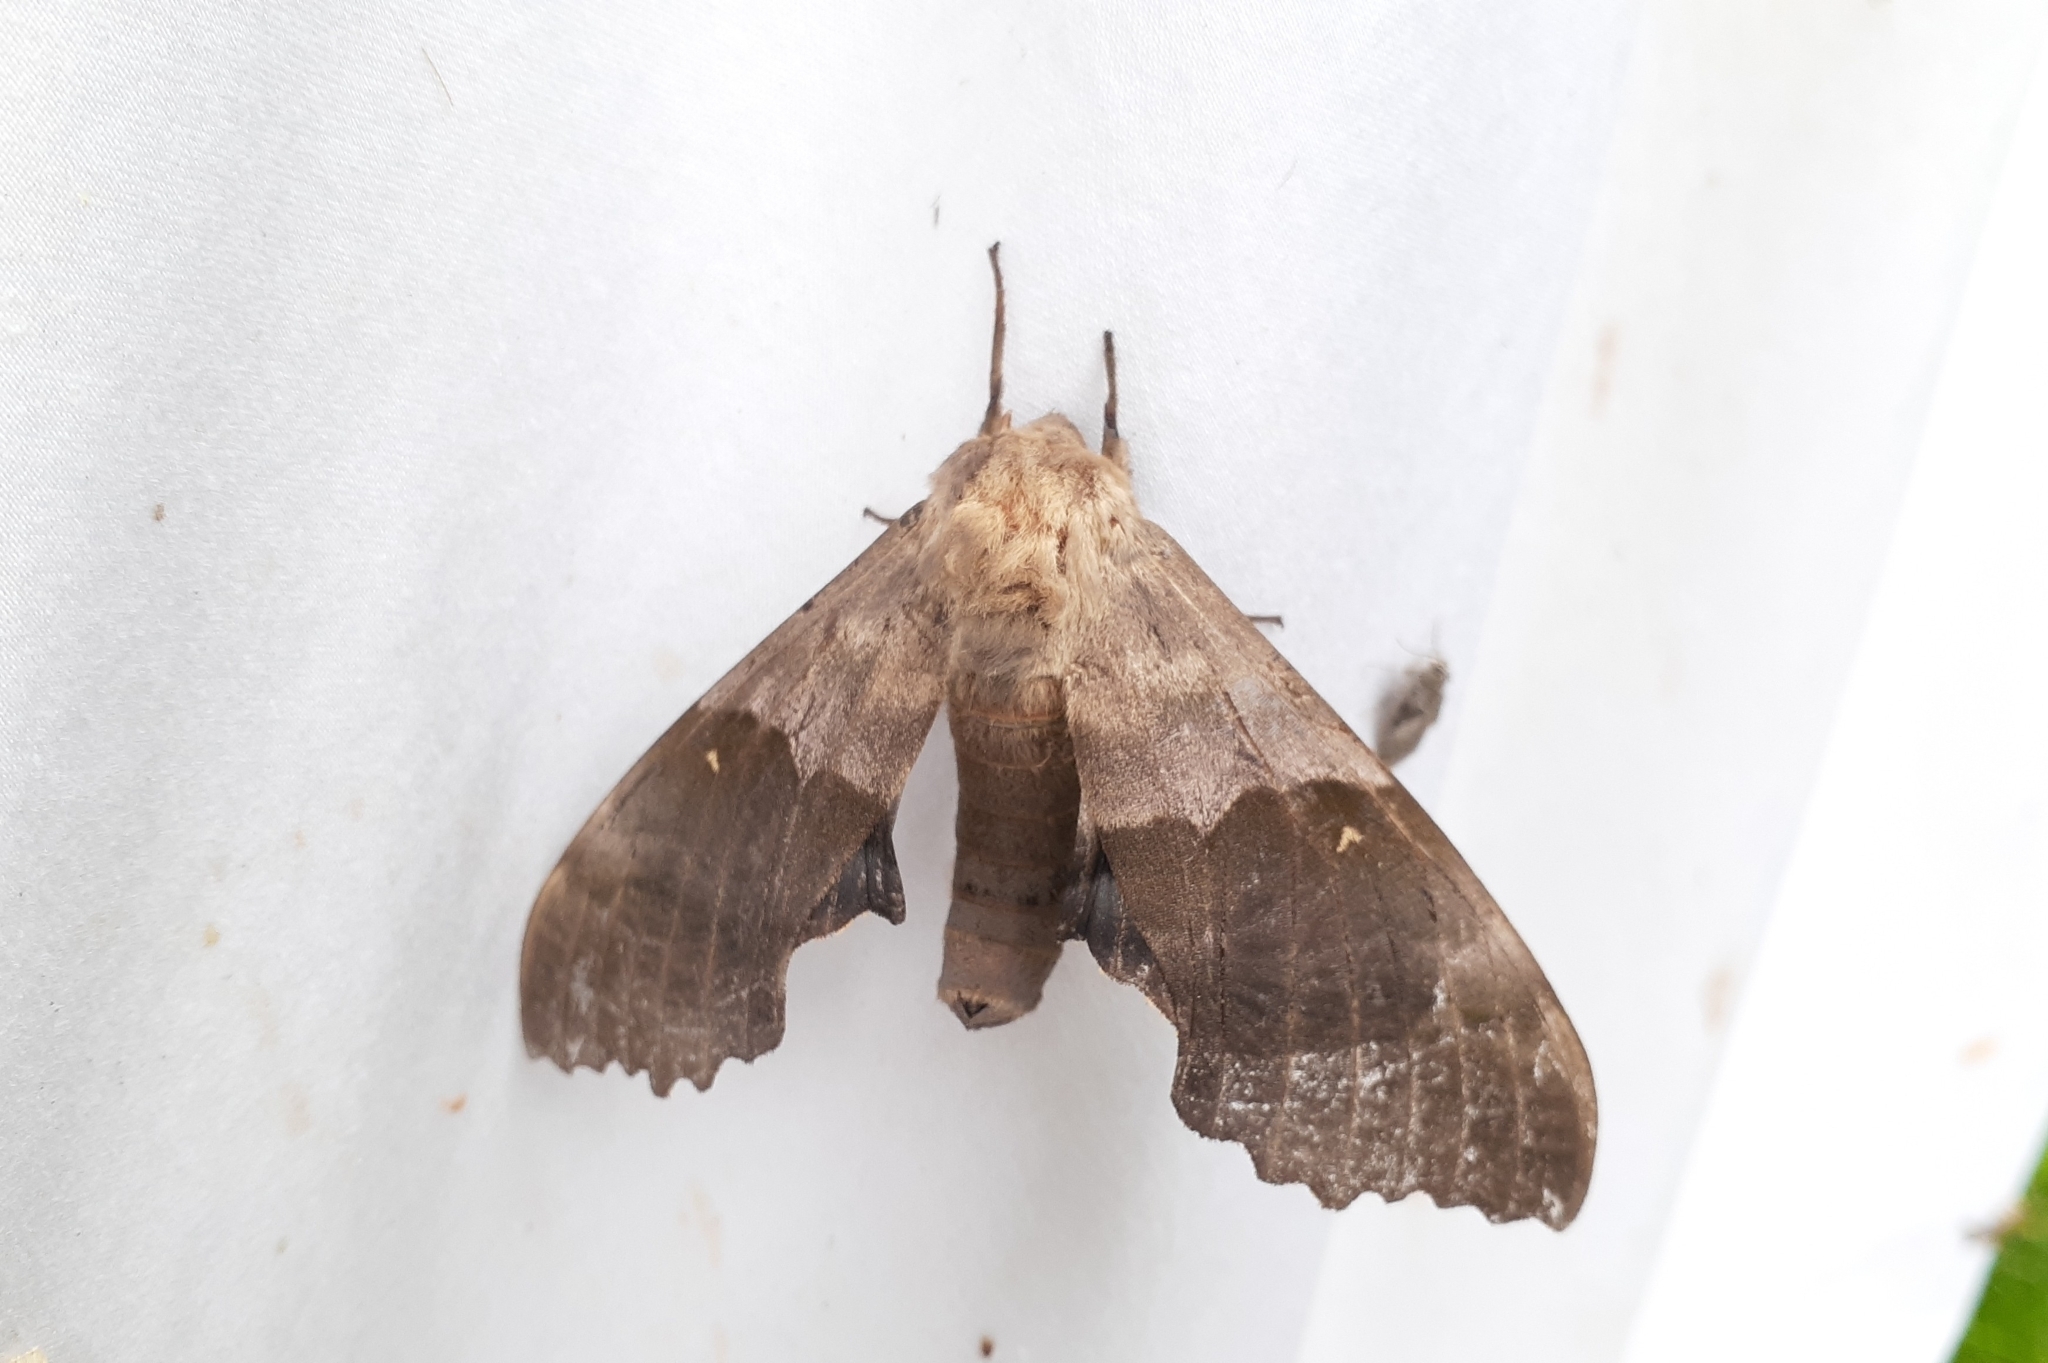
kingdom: Animalia
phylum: Arthropoda
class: Insecta
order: Lepidoptera
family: Sphingidae
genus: Pachysphinx
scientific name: Pachysphinx modesta
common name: Big poplar sphinx
